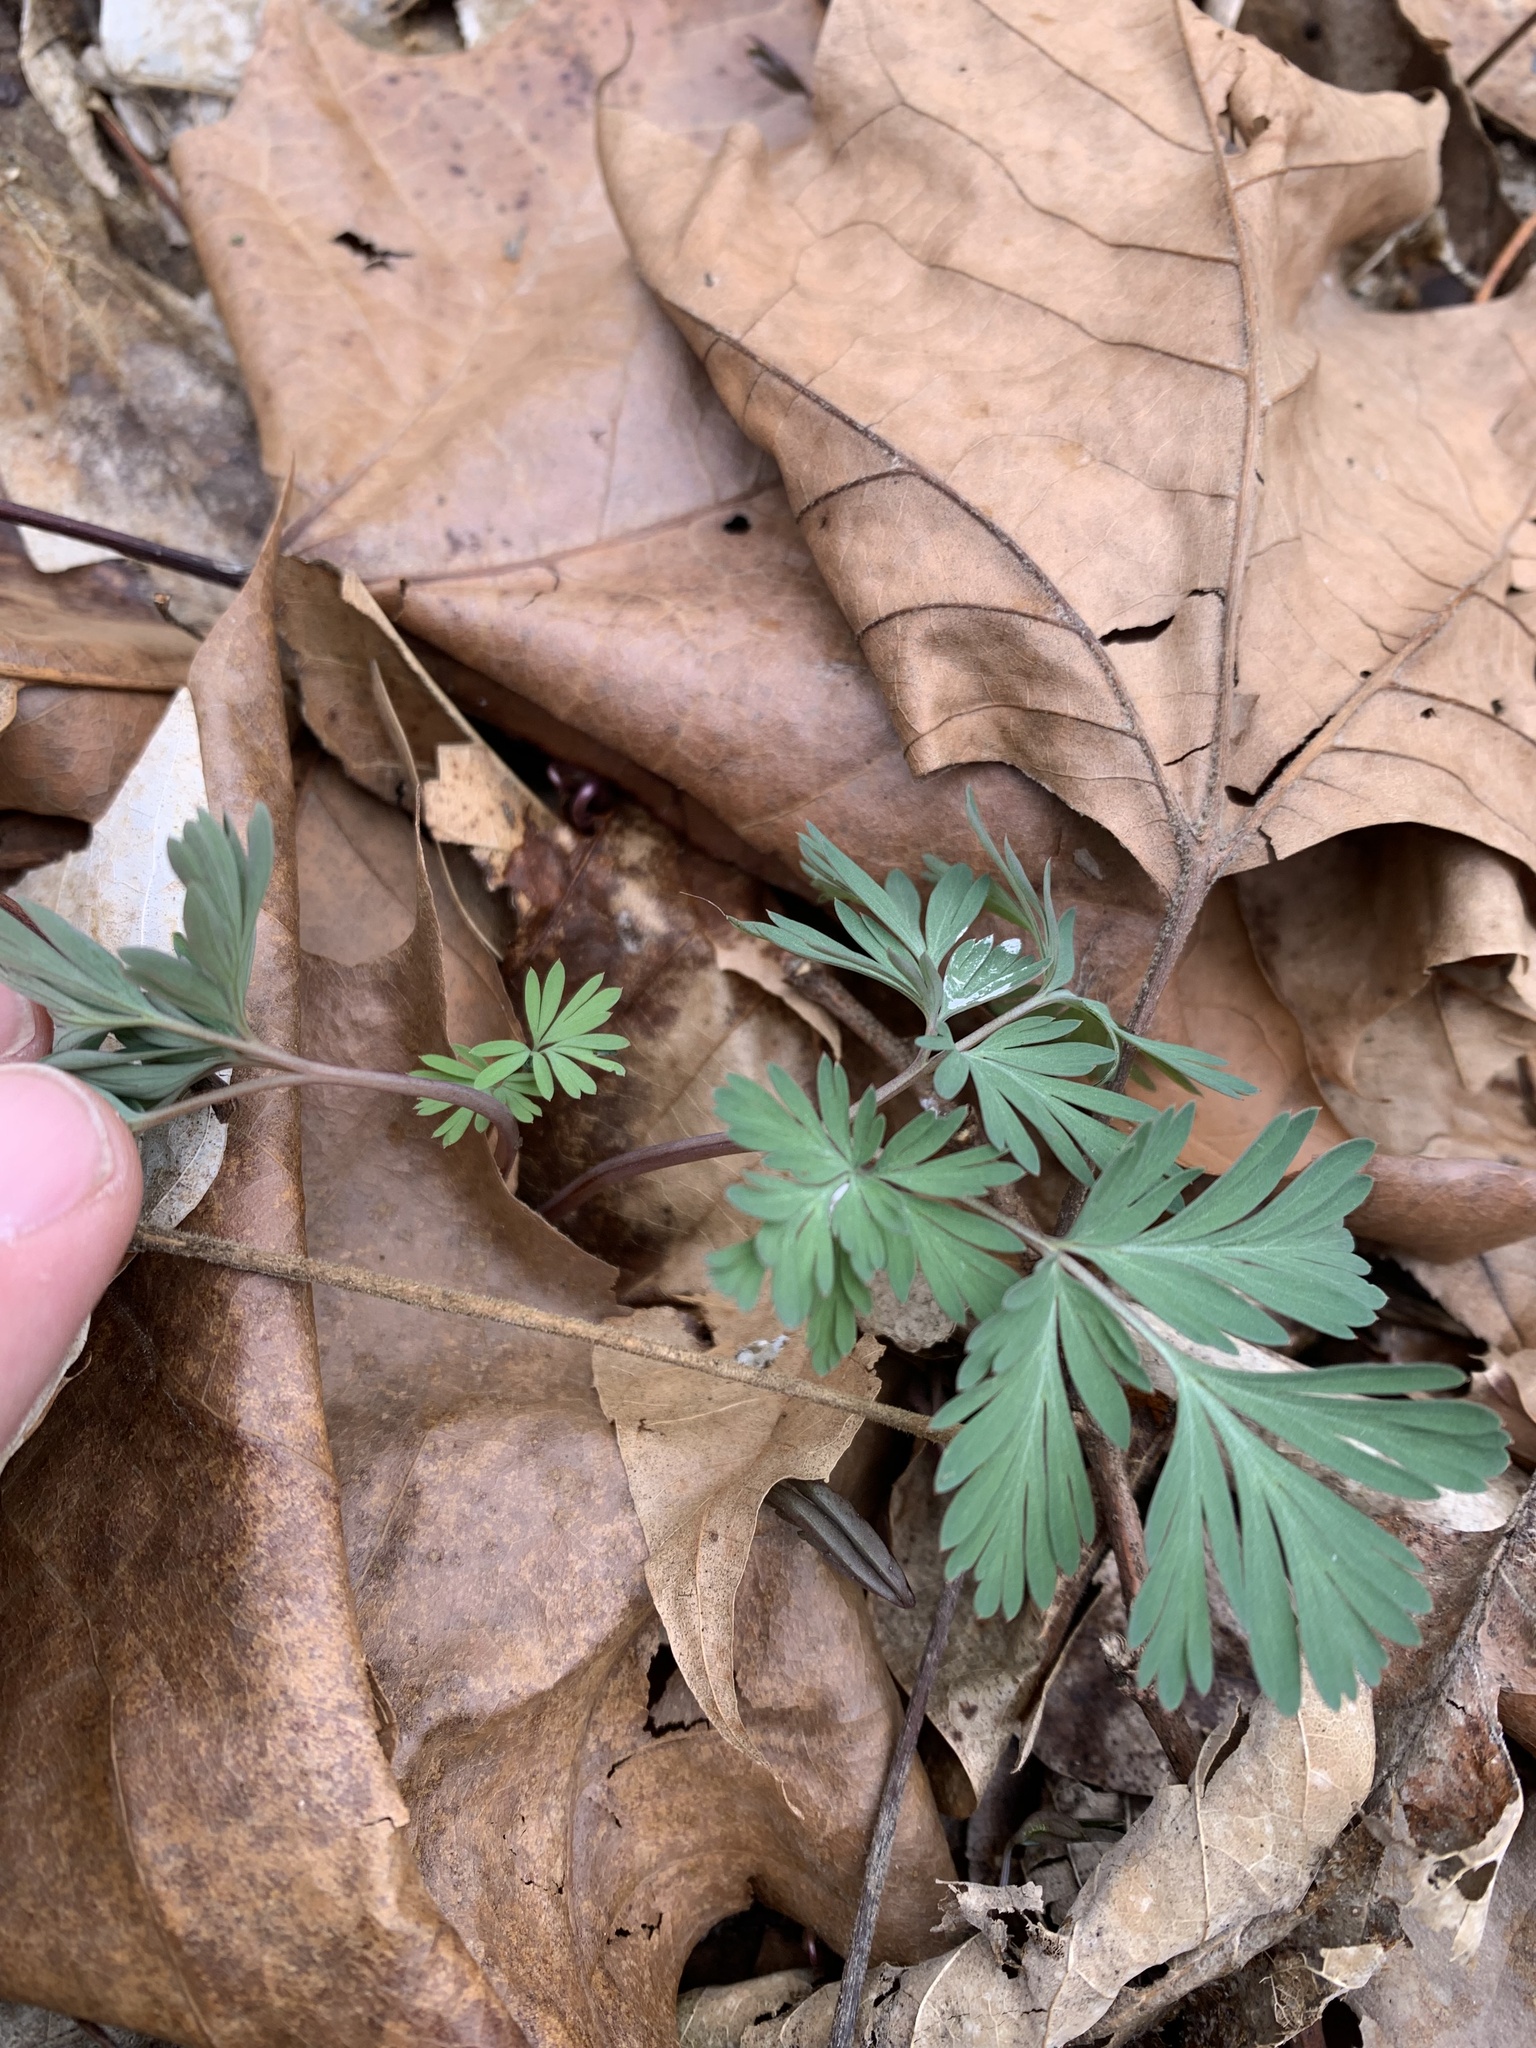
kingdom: Plantae
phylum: Tracheophyta
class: Magnoliopsida
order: Ranunculales
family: Papaveraceae
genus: Dicentra
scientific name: Dicentra cucullaria
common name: Dutchman's breeches
